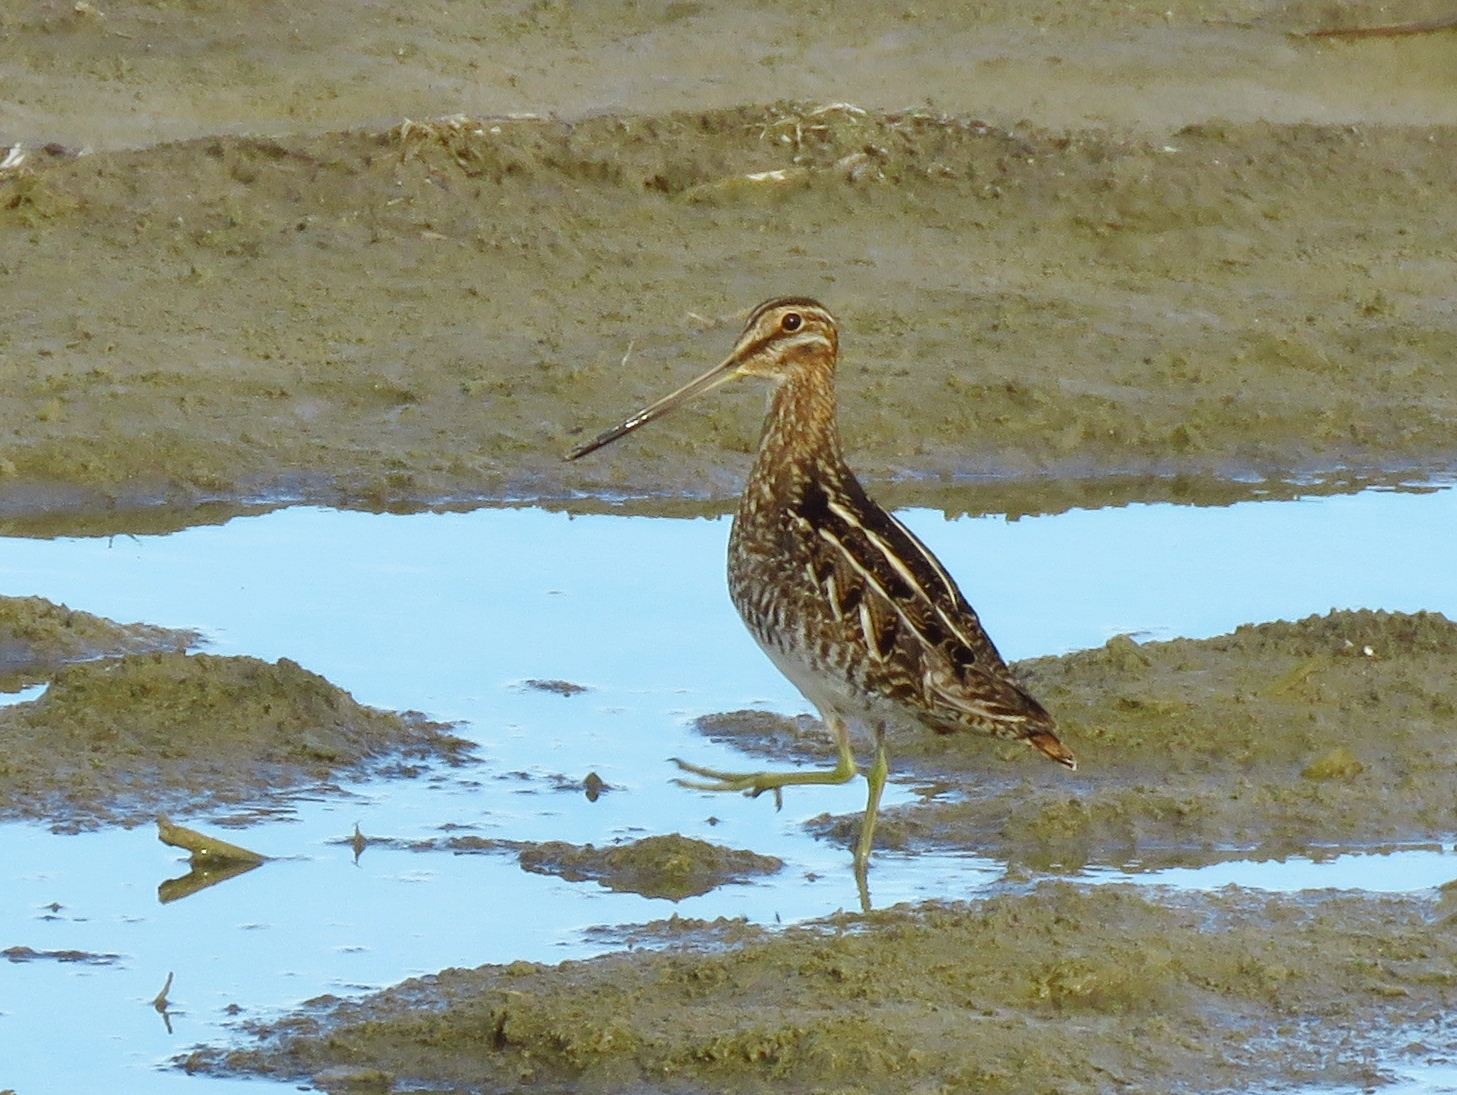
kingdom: Animalia
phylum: Chordata
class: Aves
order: Charadriiformes
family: Scolopacidae
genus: Gallinago
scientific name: Gallinago delicata
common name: Wilson's snipe
